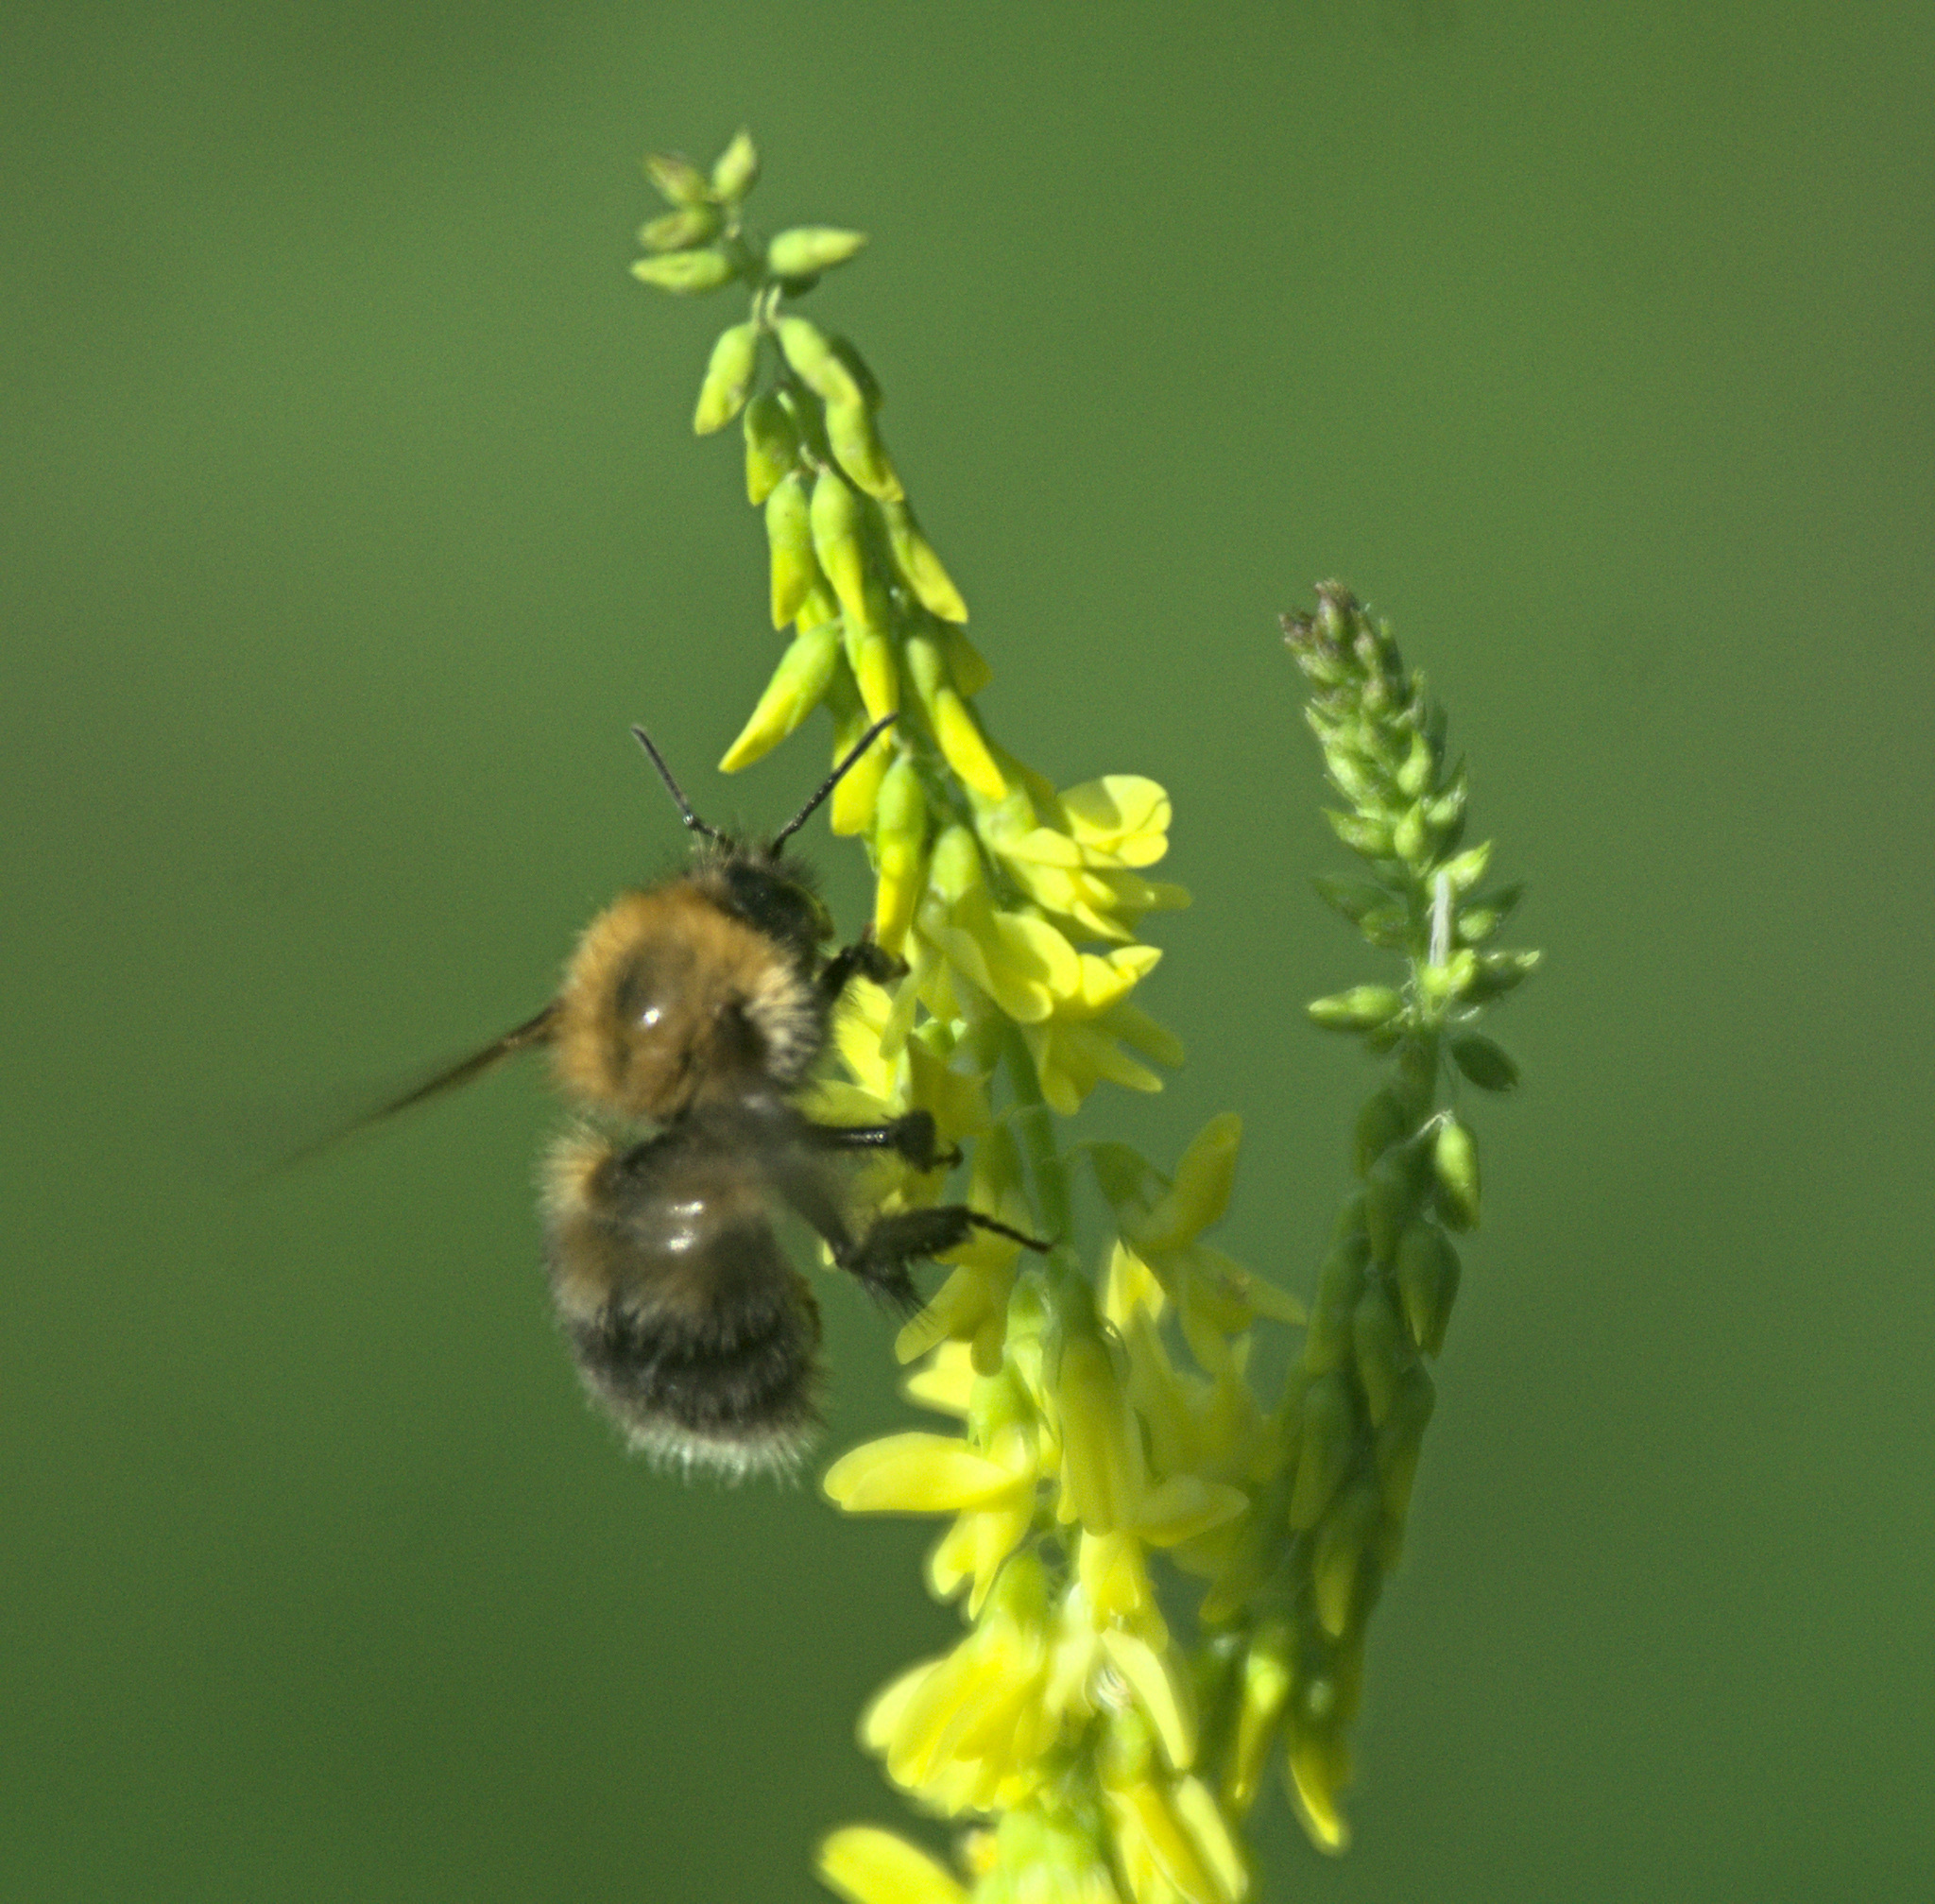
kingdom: Animalia
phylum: Arthropoda
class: Insecta
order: Hymenoptera
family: Apidae
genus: Bombus
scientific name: Bombus hypnorum
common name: New garden bumblebee
